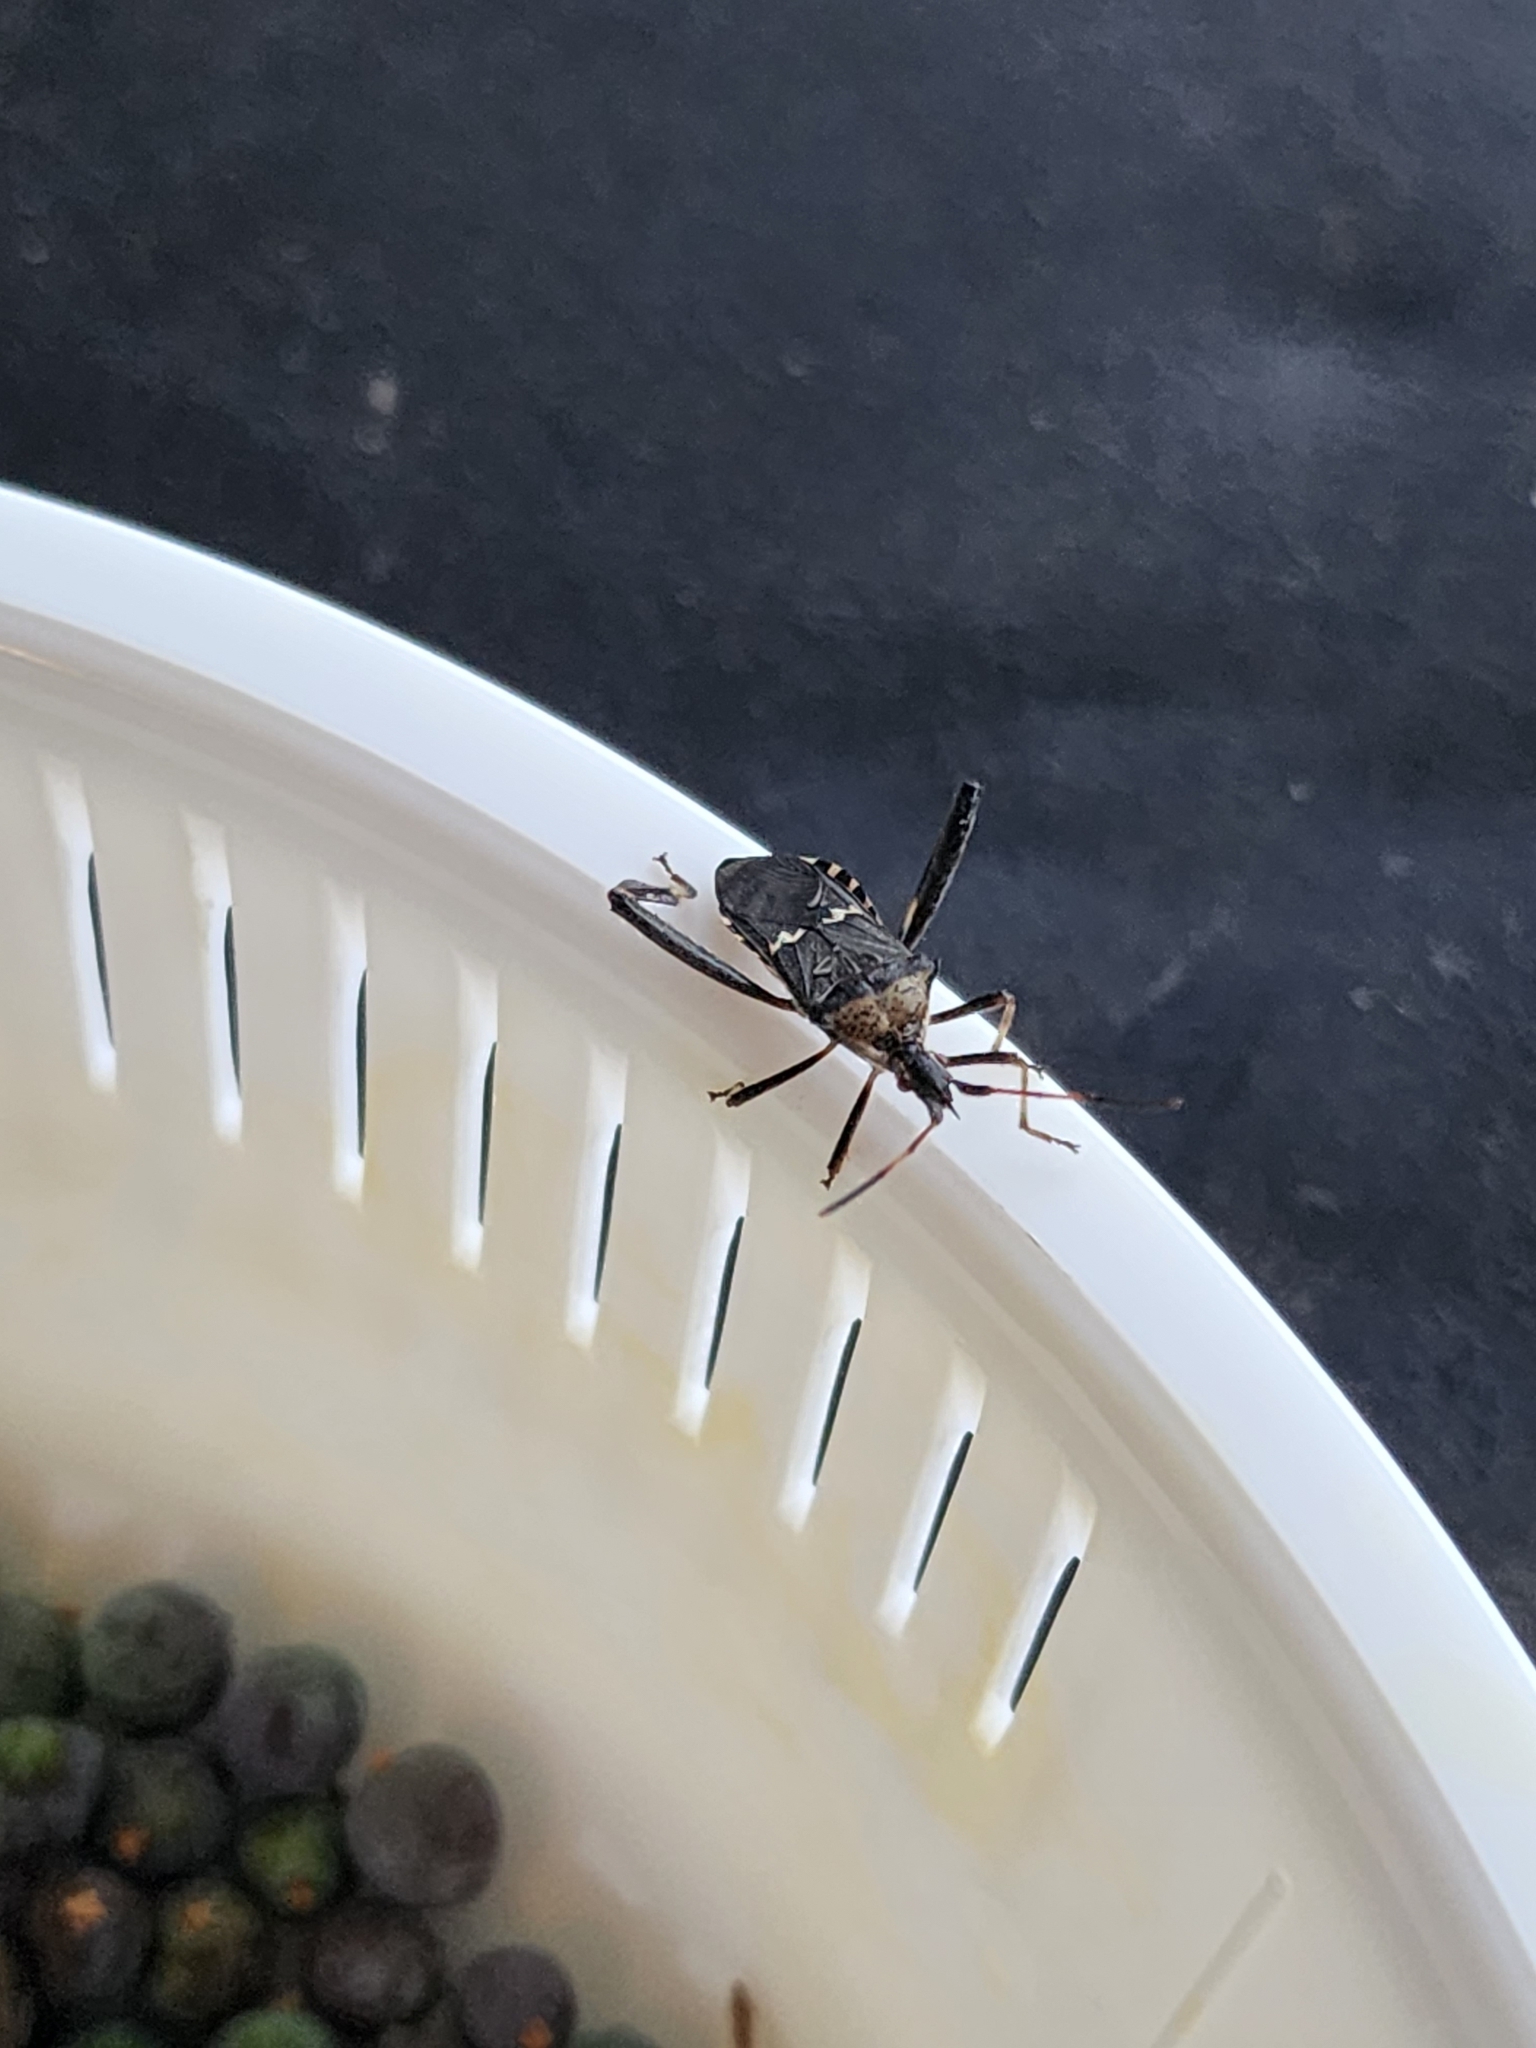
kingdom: Animalia
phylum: Arthropoda
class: Insecta
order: Hemiptera
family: Coreidae
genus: Leptoglossus
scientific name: Leptoglossus clypealis
